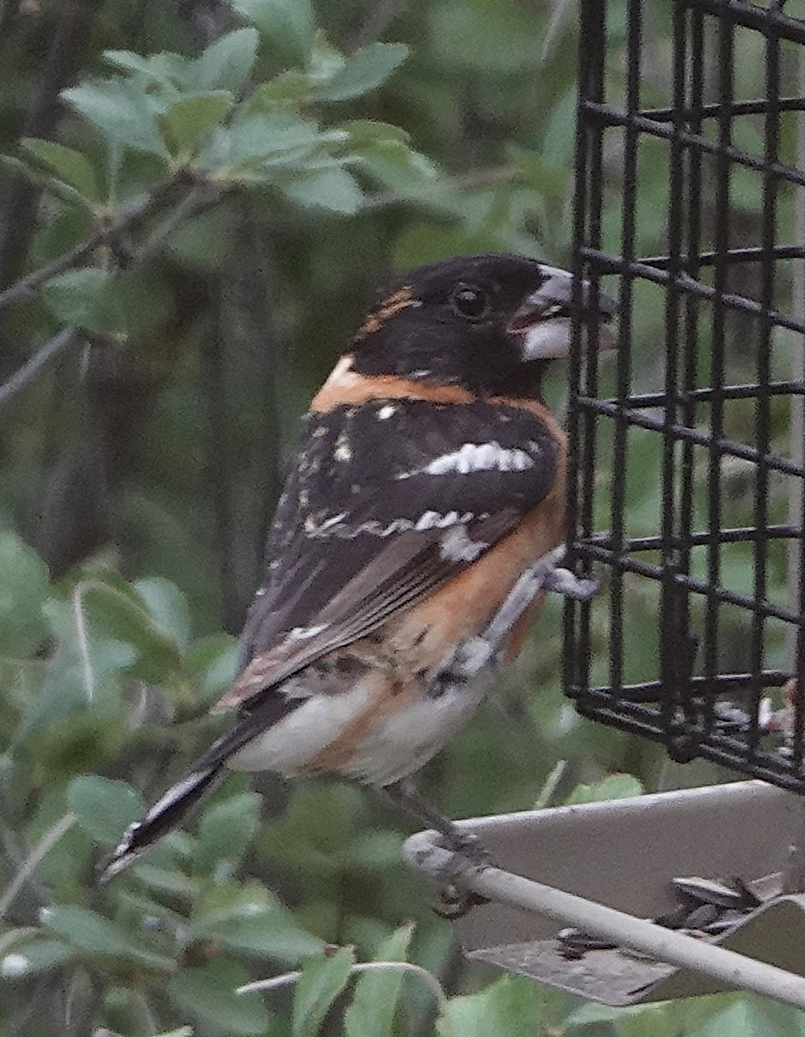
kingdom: Animalia
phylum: Chordata
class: Aves
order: Passeriformes
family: Cardinalidae
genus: Pheucticus
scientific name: Pheucticus melanocephalus
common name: Black-headed grosbeak
